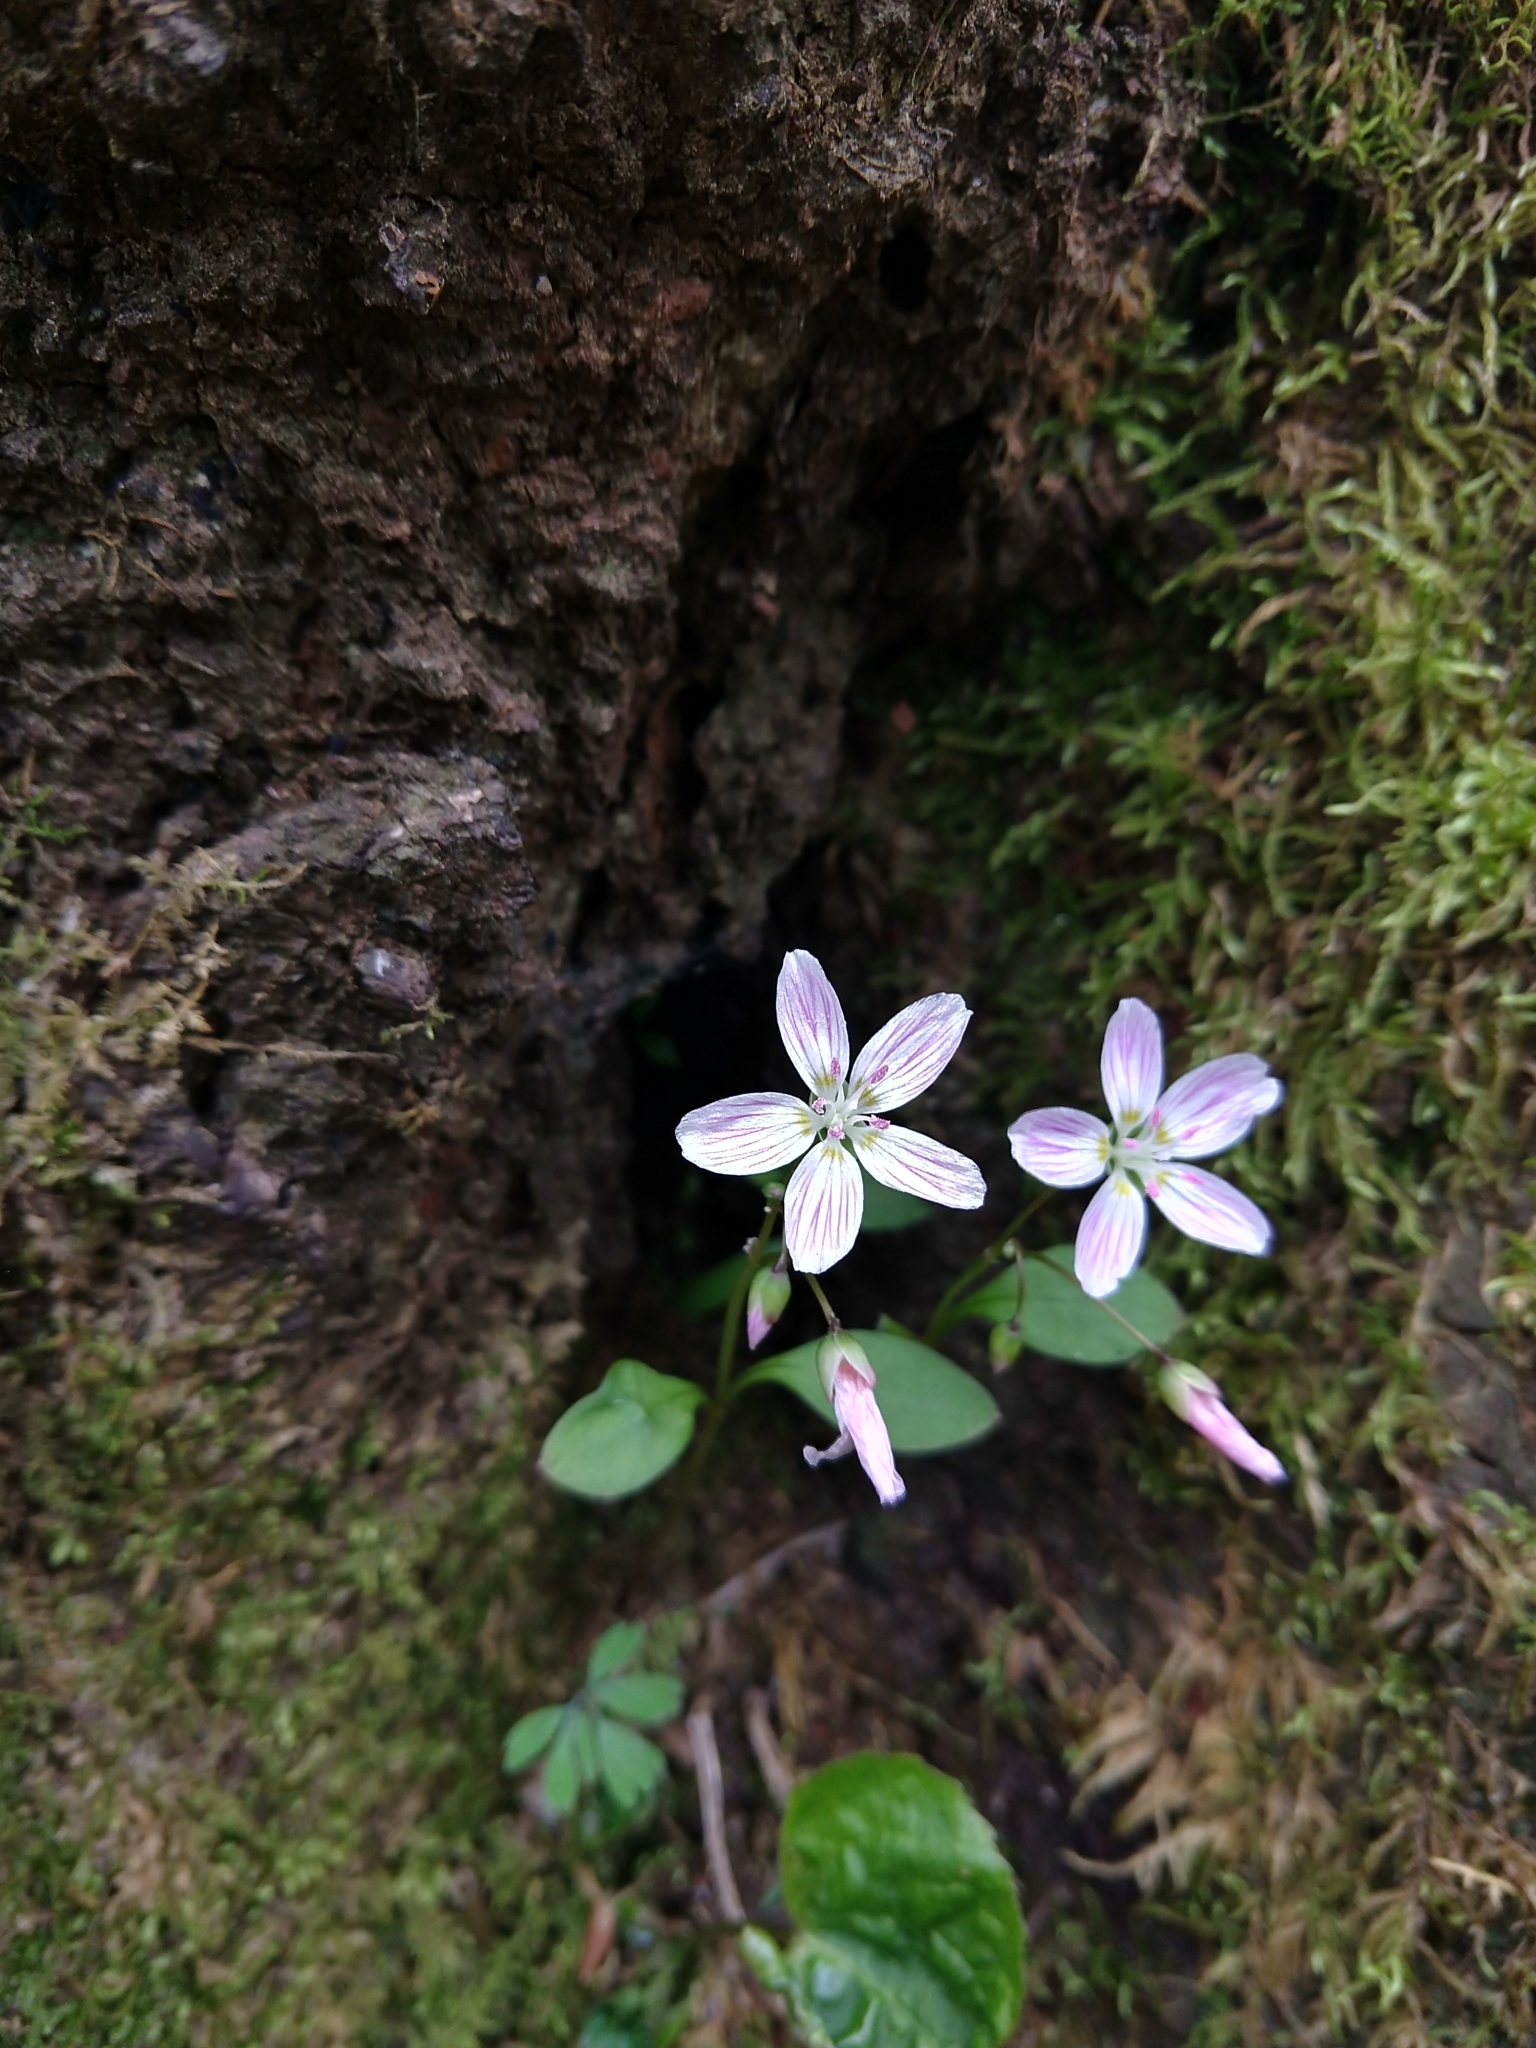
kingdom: Plantae
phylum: Tracheophyta
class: Magnoliopsida
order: Caryophyllales
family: Montiaceae
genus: Claytonia
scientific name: Claytonia caroliniana
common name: Carolina spring beauty
